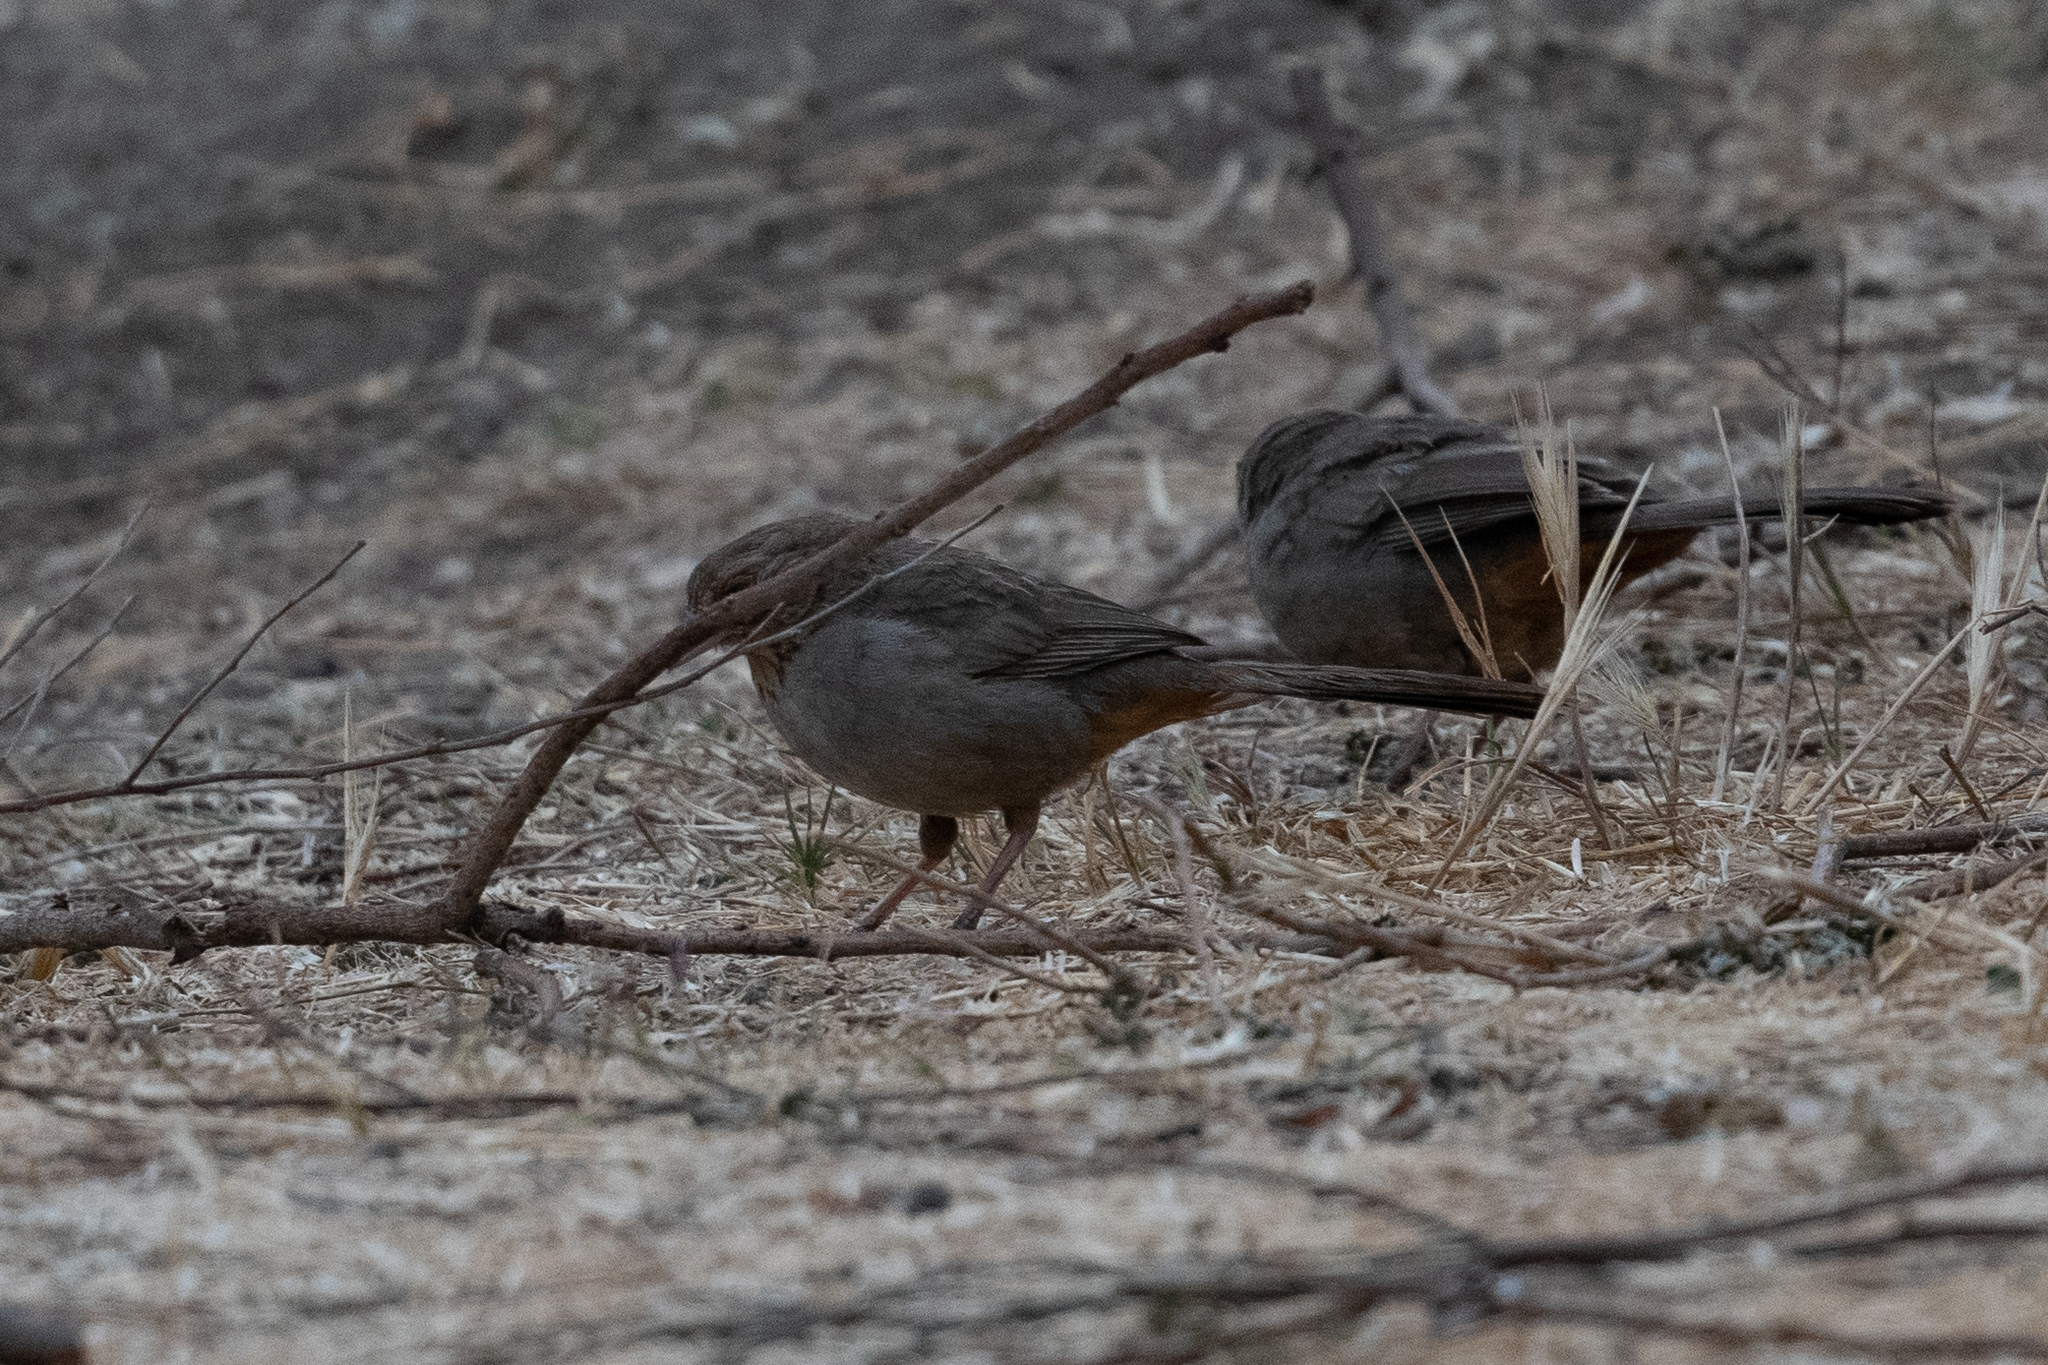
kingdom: Animalia
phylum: Chordata
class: Aves
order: Passeriformes
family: Passerellidae
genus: Melozone
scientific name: Melozone crissalis
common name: California towhee
